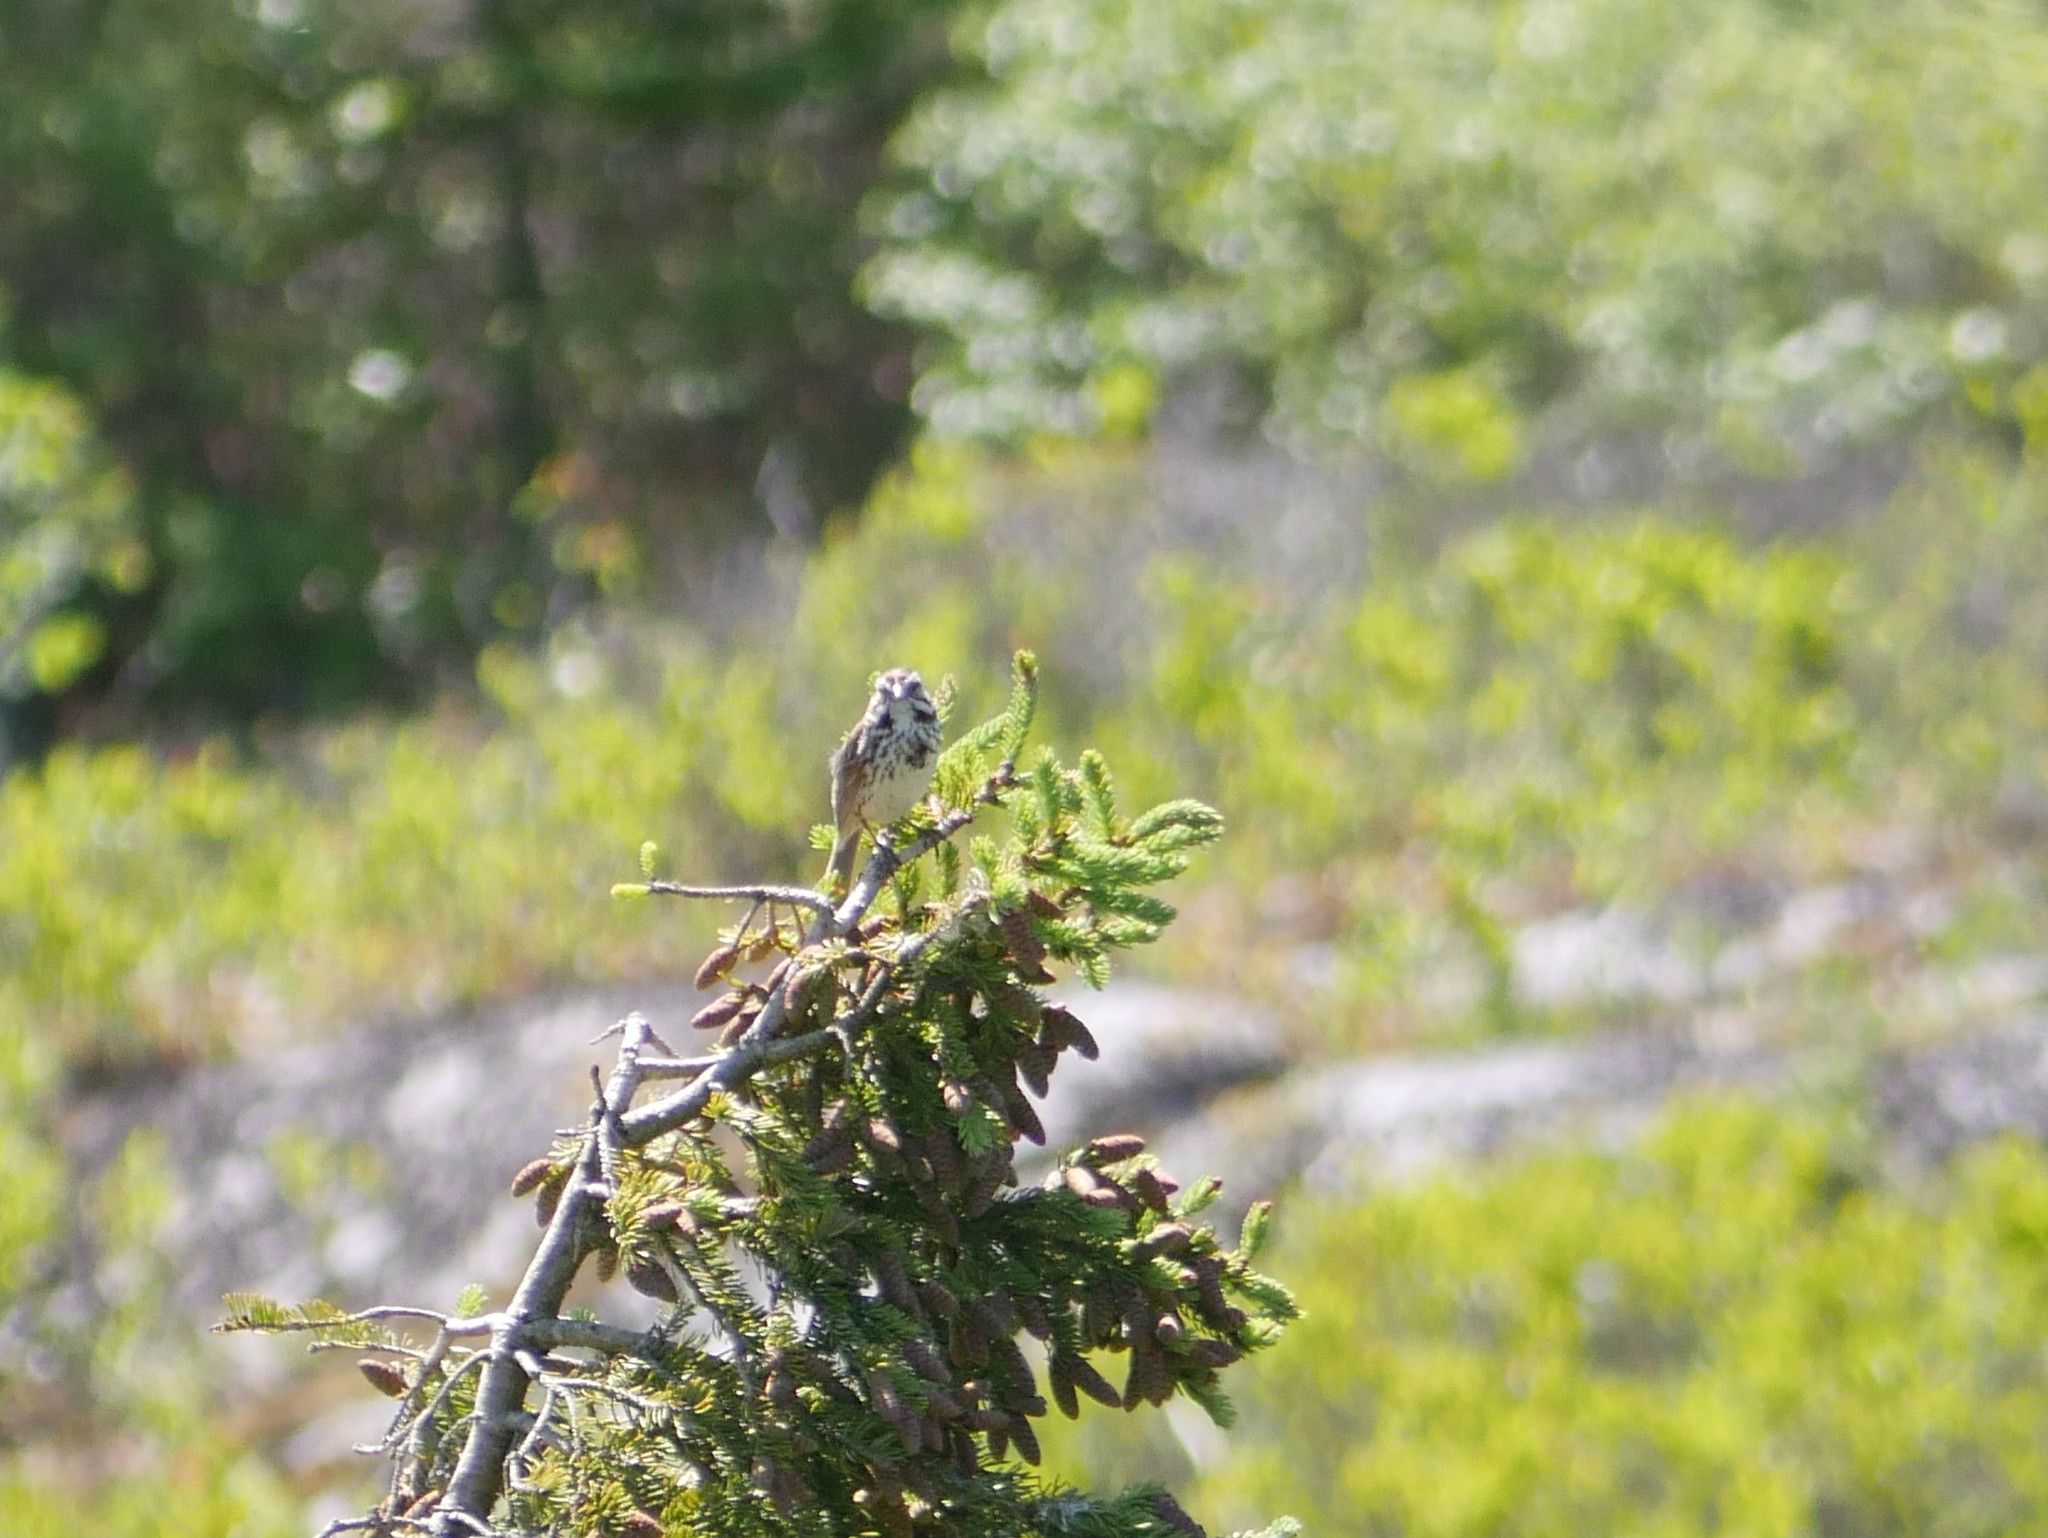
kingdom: Animalia
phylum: Chordata
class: Aves
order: Passeriformes
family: Passerellidae
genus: Melospiza
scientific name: Melospiza melodia
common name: Song sparrow
